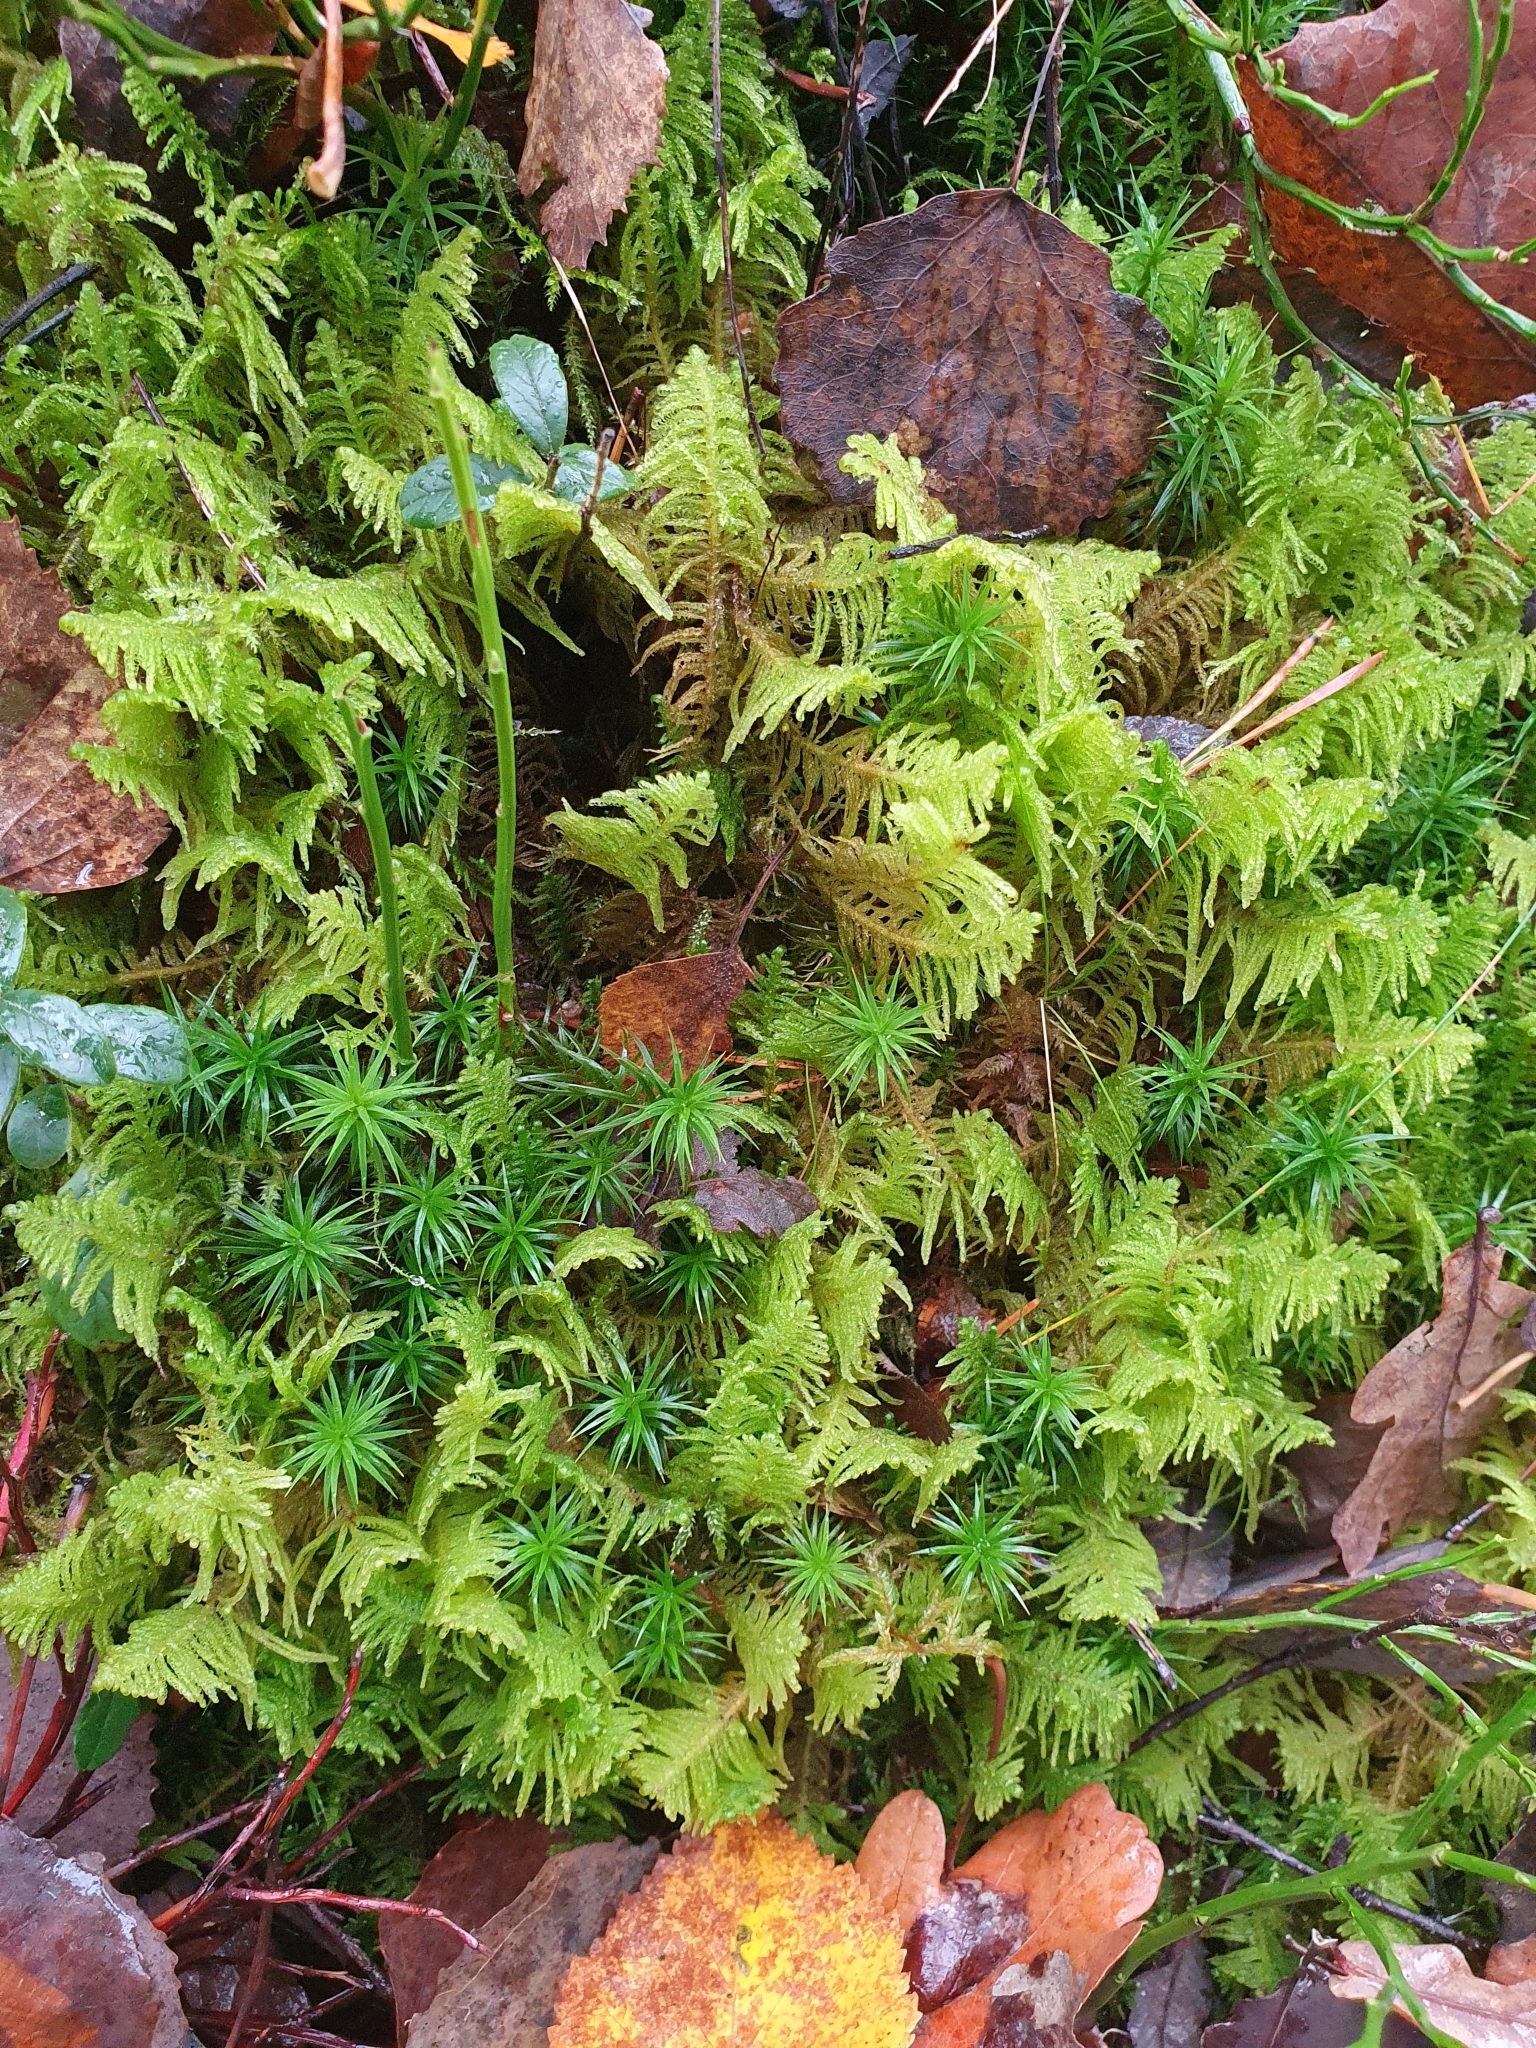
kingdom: Plantae
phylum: Bryophyta
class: Bryopsida
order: Hypnales
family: Pylaisiaceae
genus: Ptilium
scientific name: Ptilium crista-castrensis
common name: Knight's plume moss
